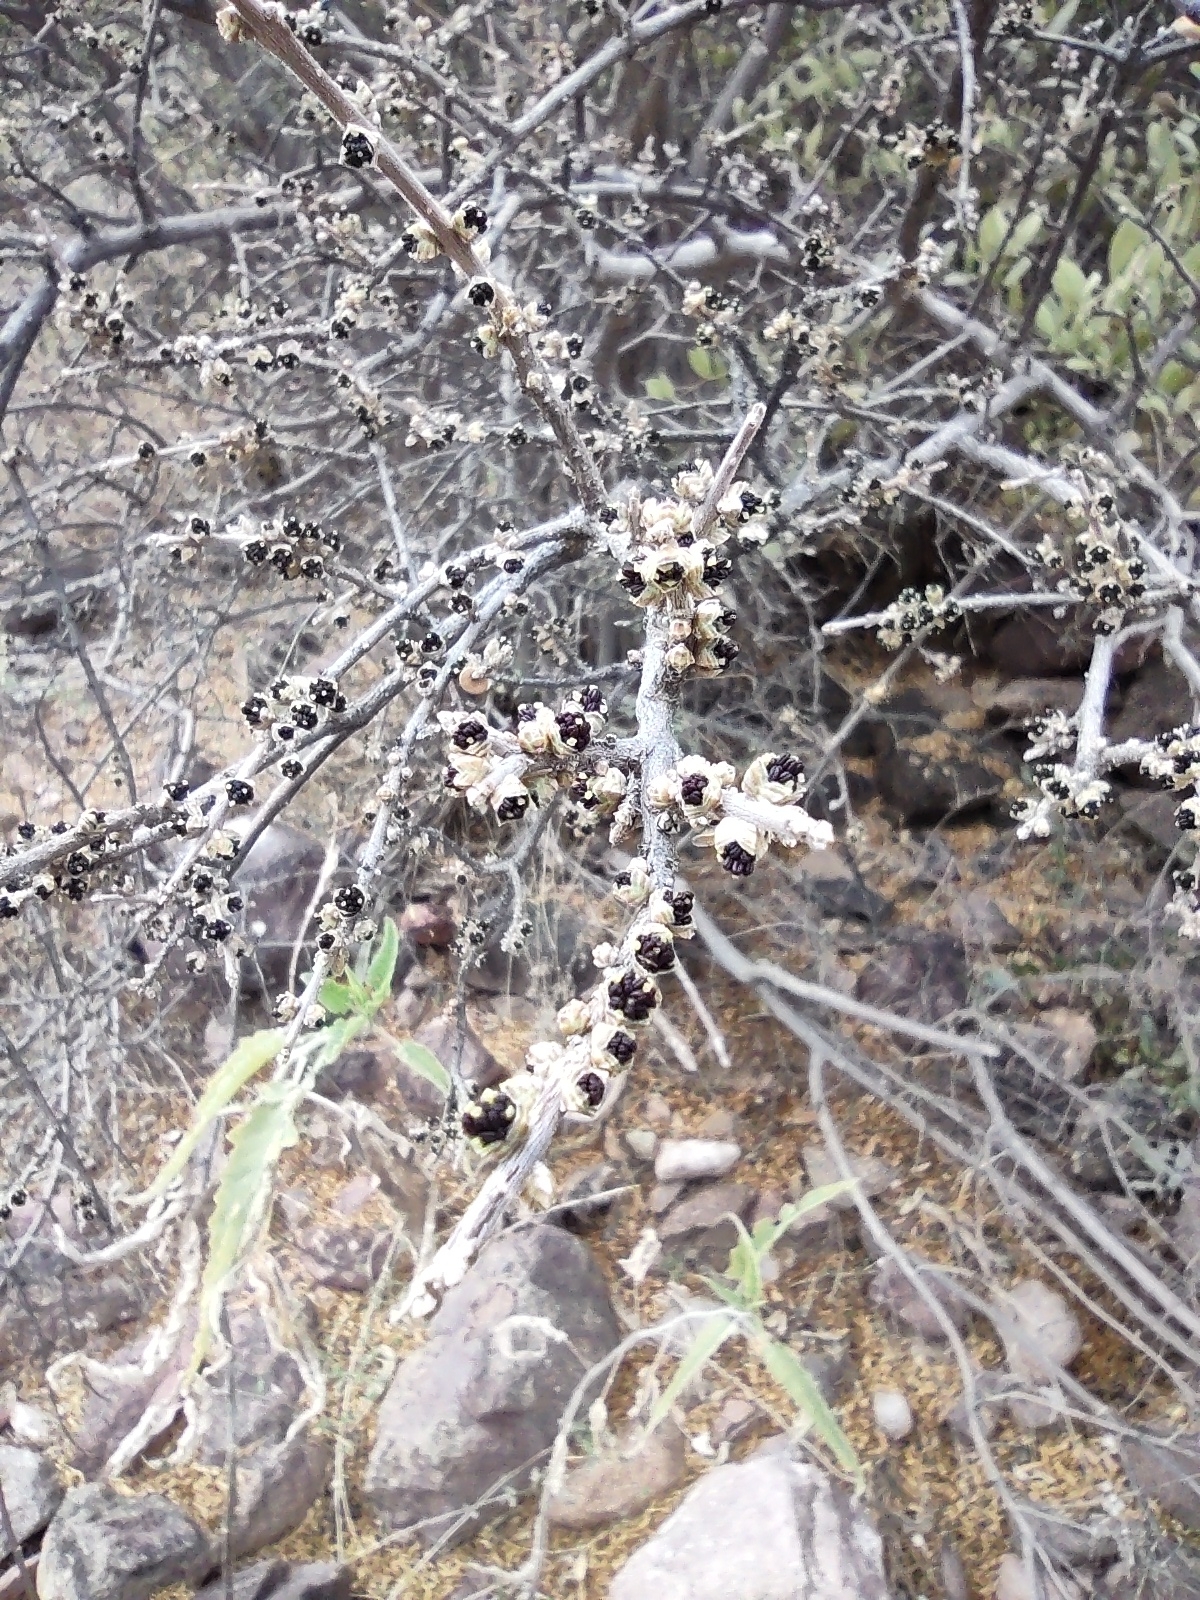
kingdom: Plantae
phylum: Tracheophyta
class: Magnoliopsida
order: Lamiales
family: Oleaceae
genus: Forestiera
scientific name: Forestiera phillyreoides
